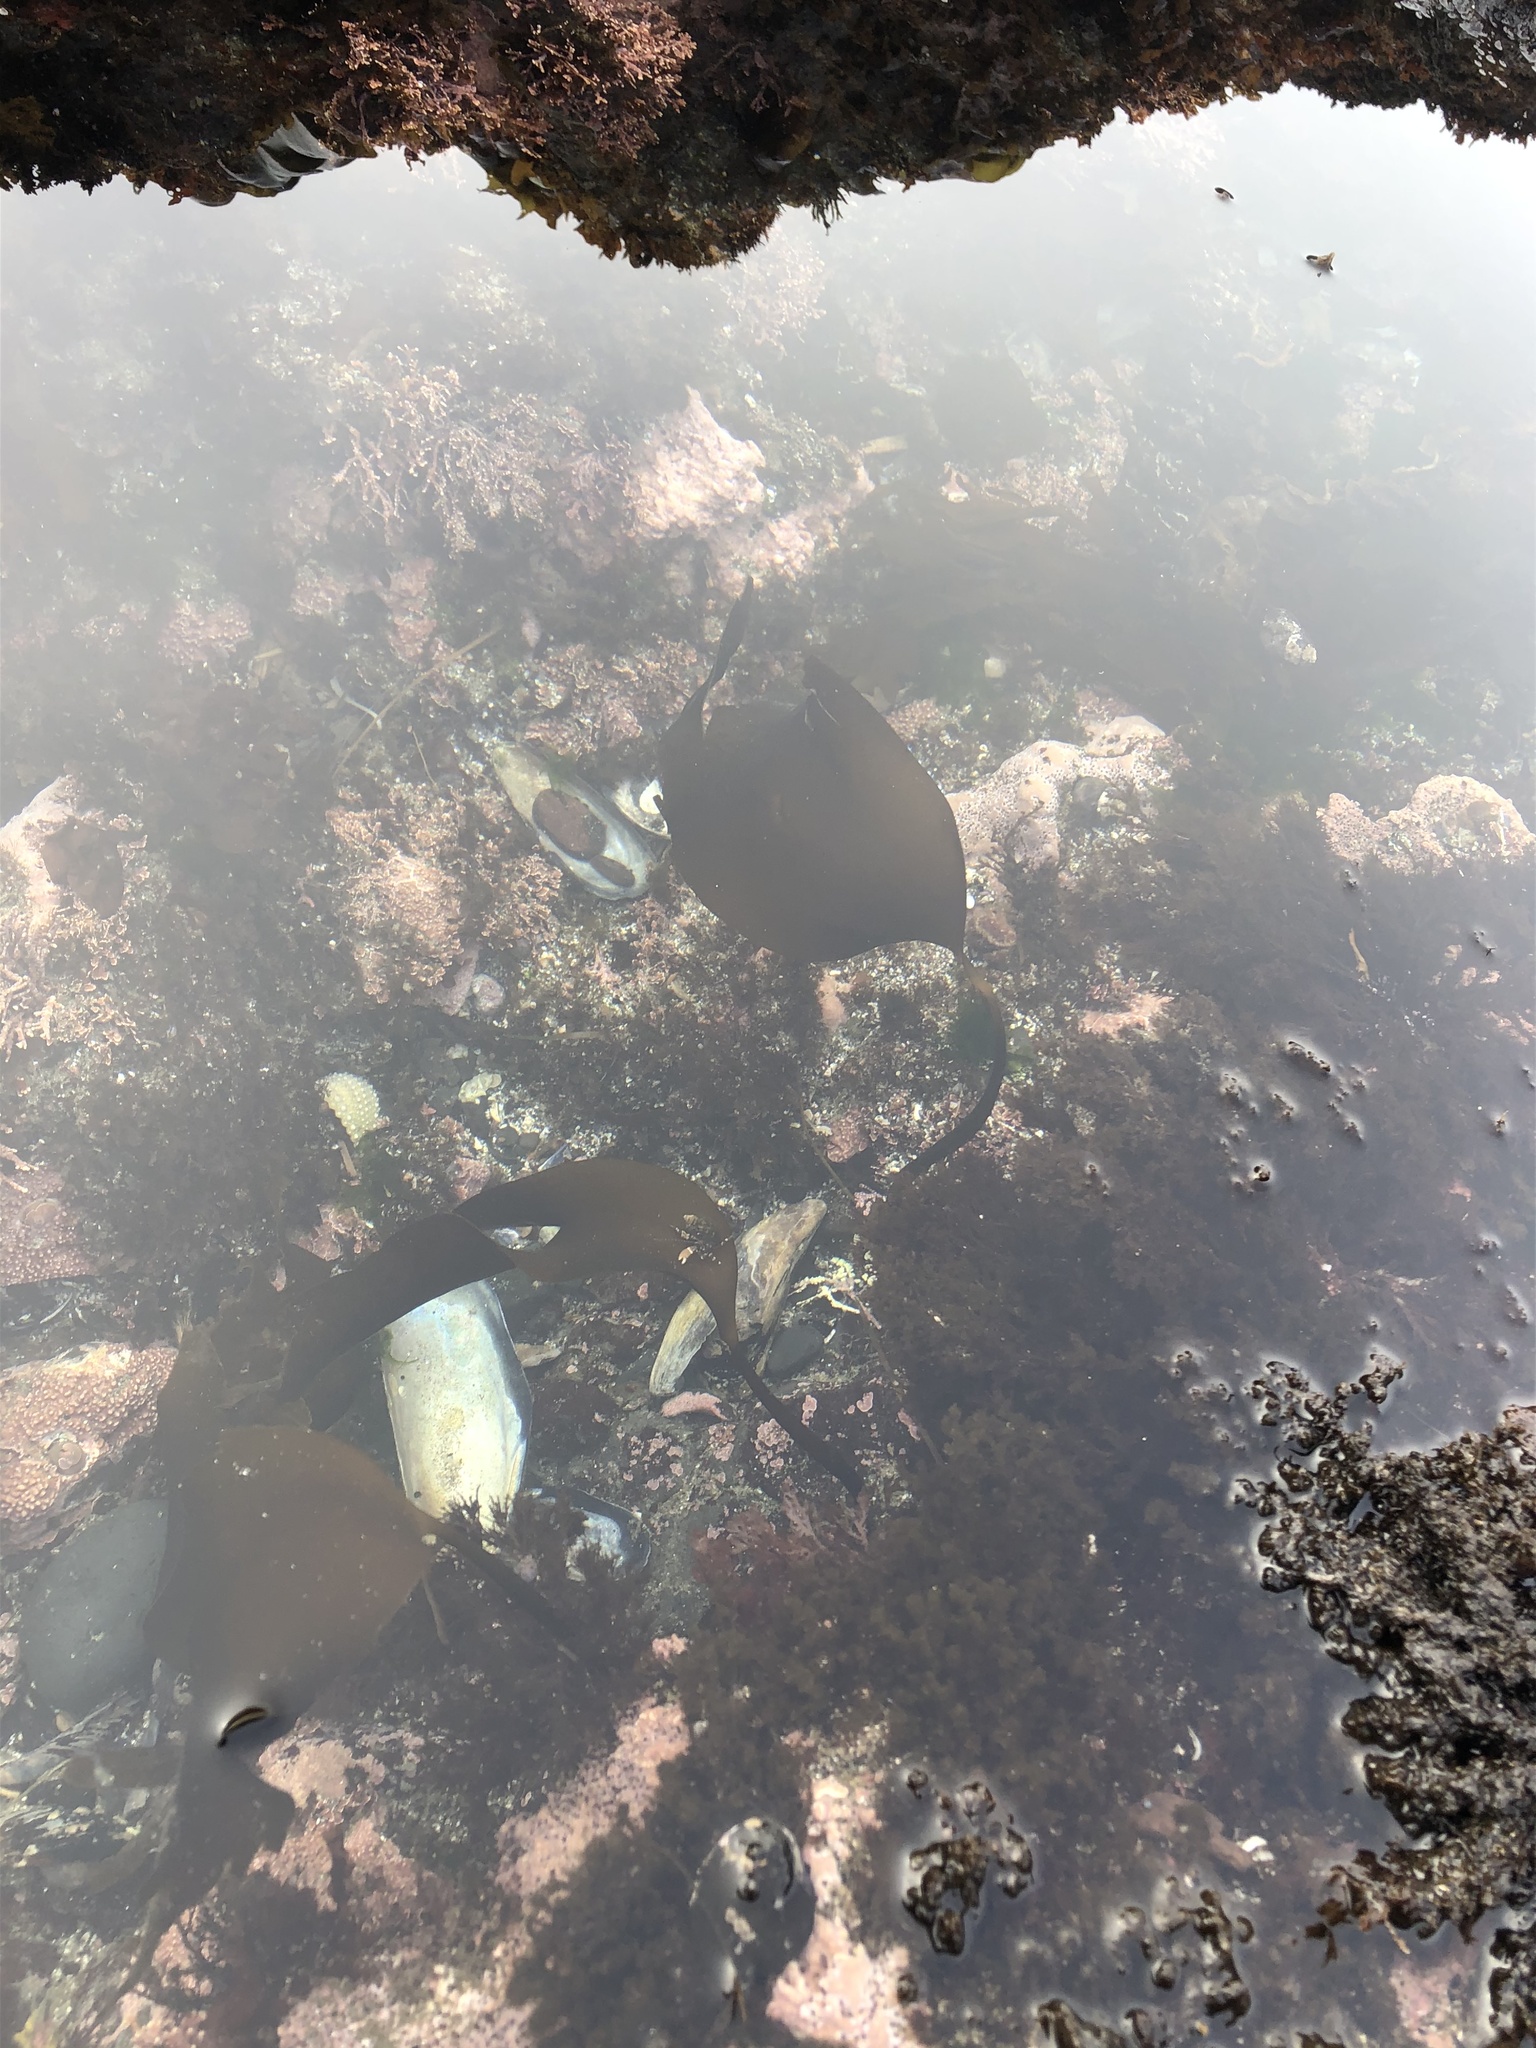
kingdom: Chromista
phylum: Ochrophyta
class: Phaeophyceae
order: Laminariales
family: Laminariaceae
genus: Laminaria
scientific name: Laminaria setchellii
